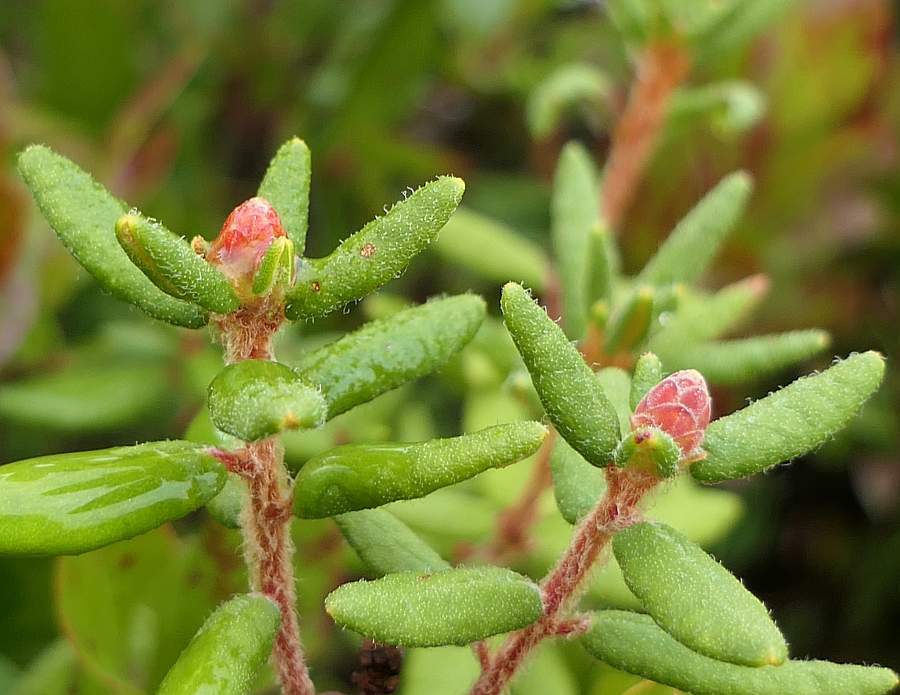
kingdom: Plantae
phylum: Tracheophyta
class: Magnoliopsida
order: Ericales
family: Ericaceae
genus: Rhododendron
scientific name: Rhododendron groenlandicum
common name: Bog labrador tea
